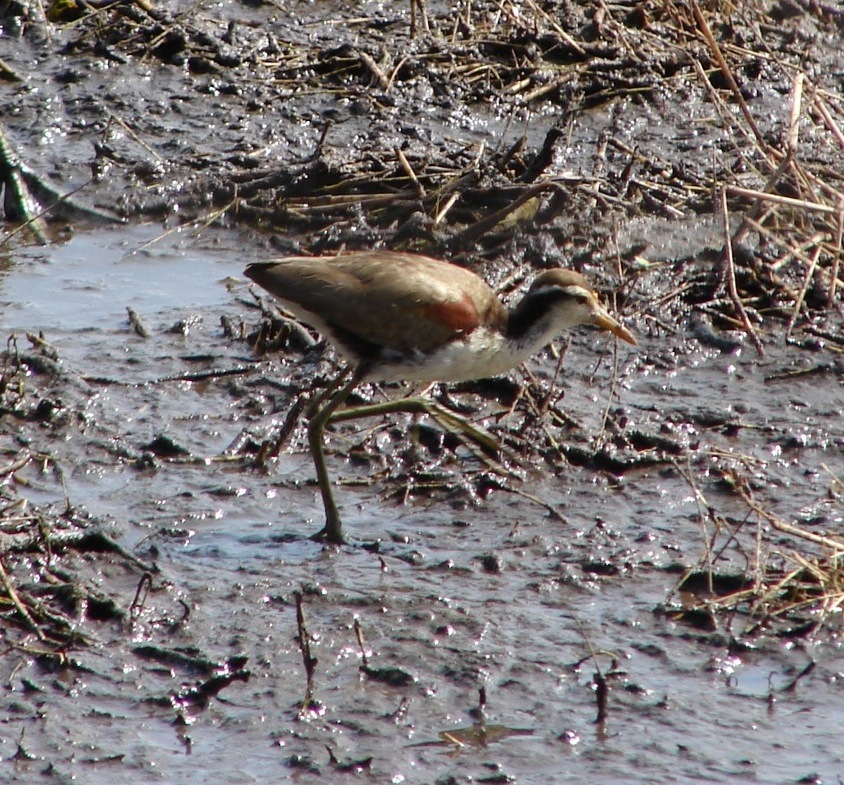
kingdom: Animalia
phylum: Chordata
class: Aves
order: Charadriiformes
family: Jacanidae
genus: Jacana
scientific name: Jacana spinosa
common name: Northern jacana
